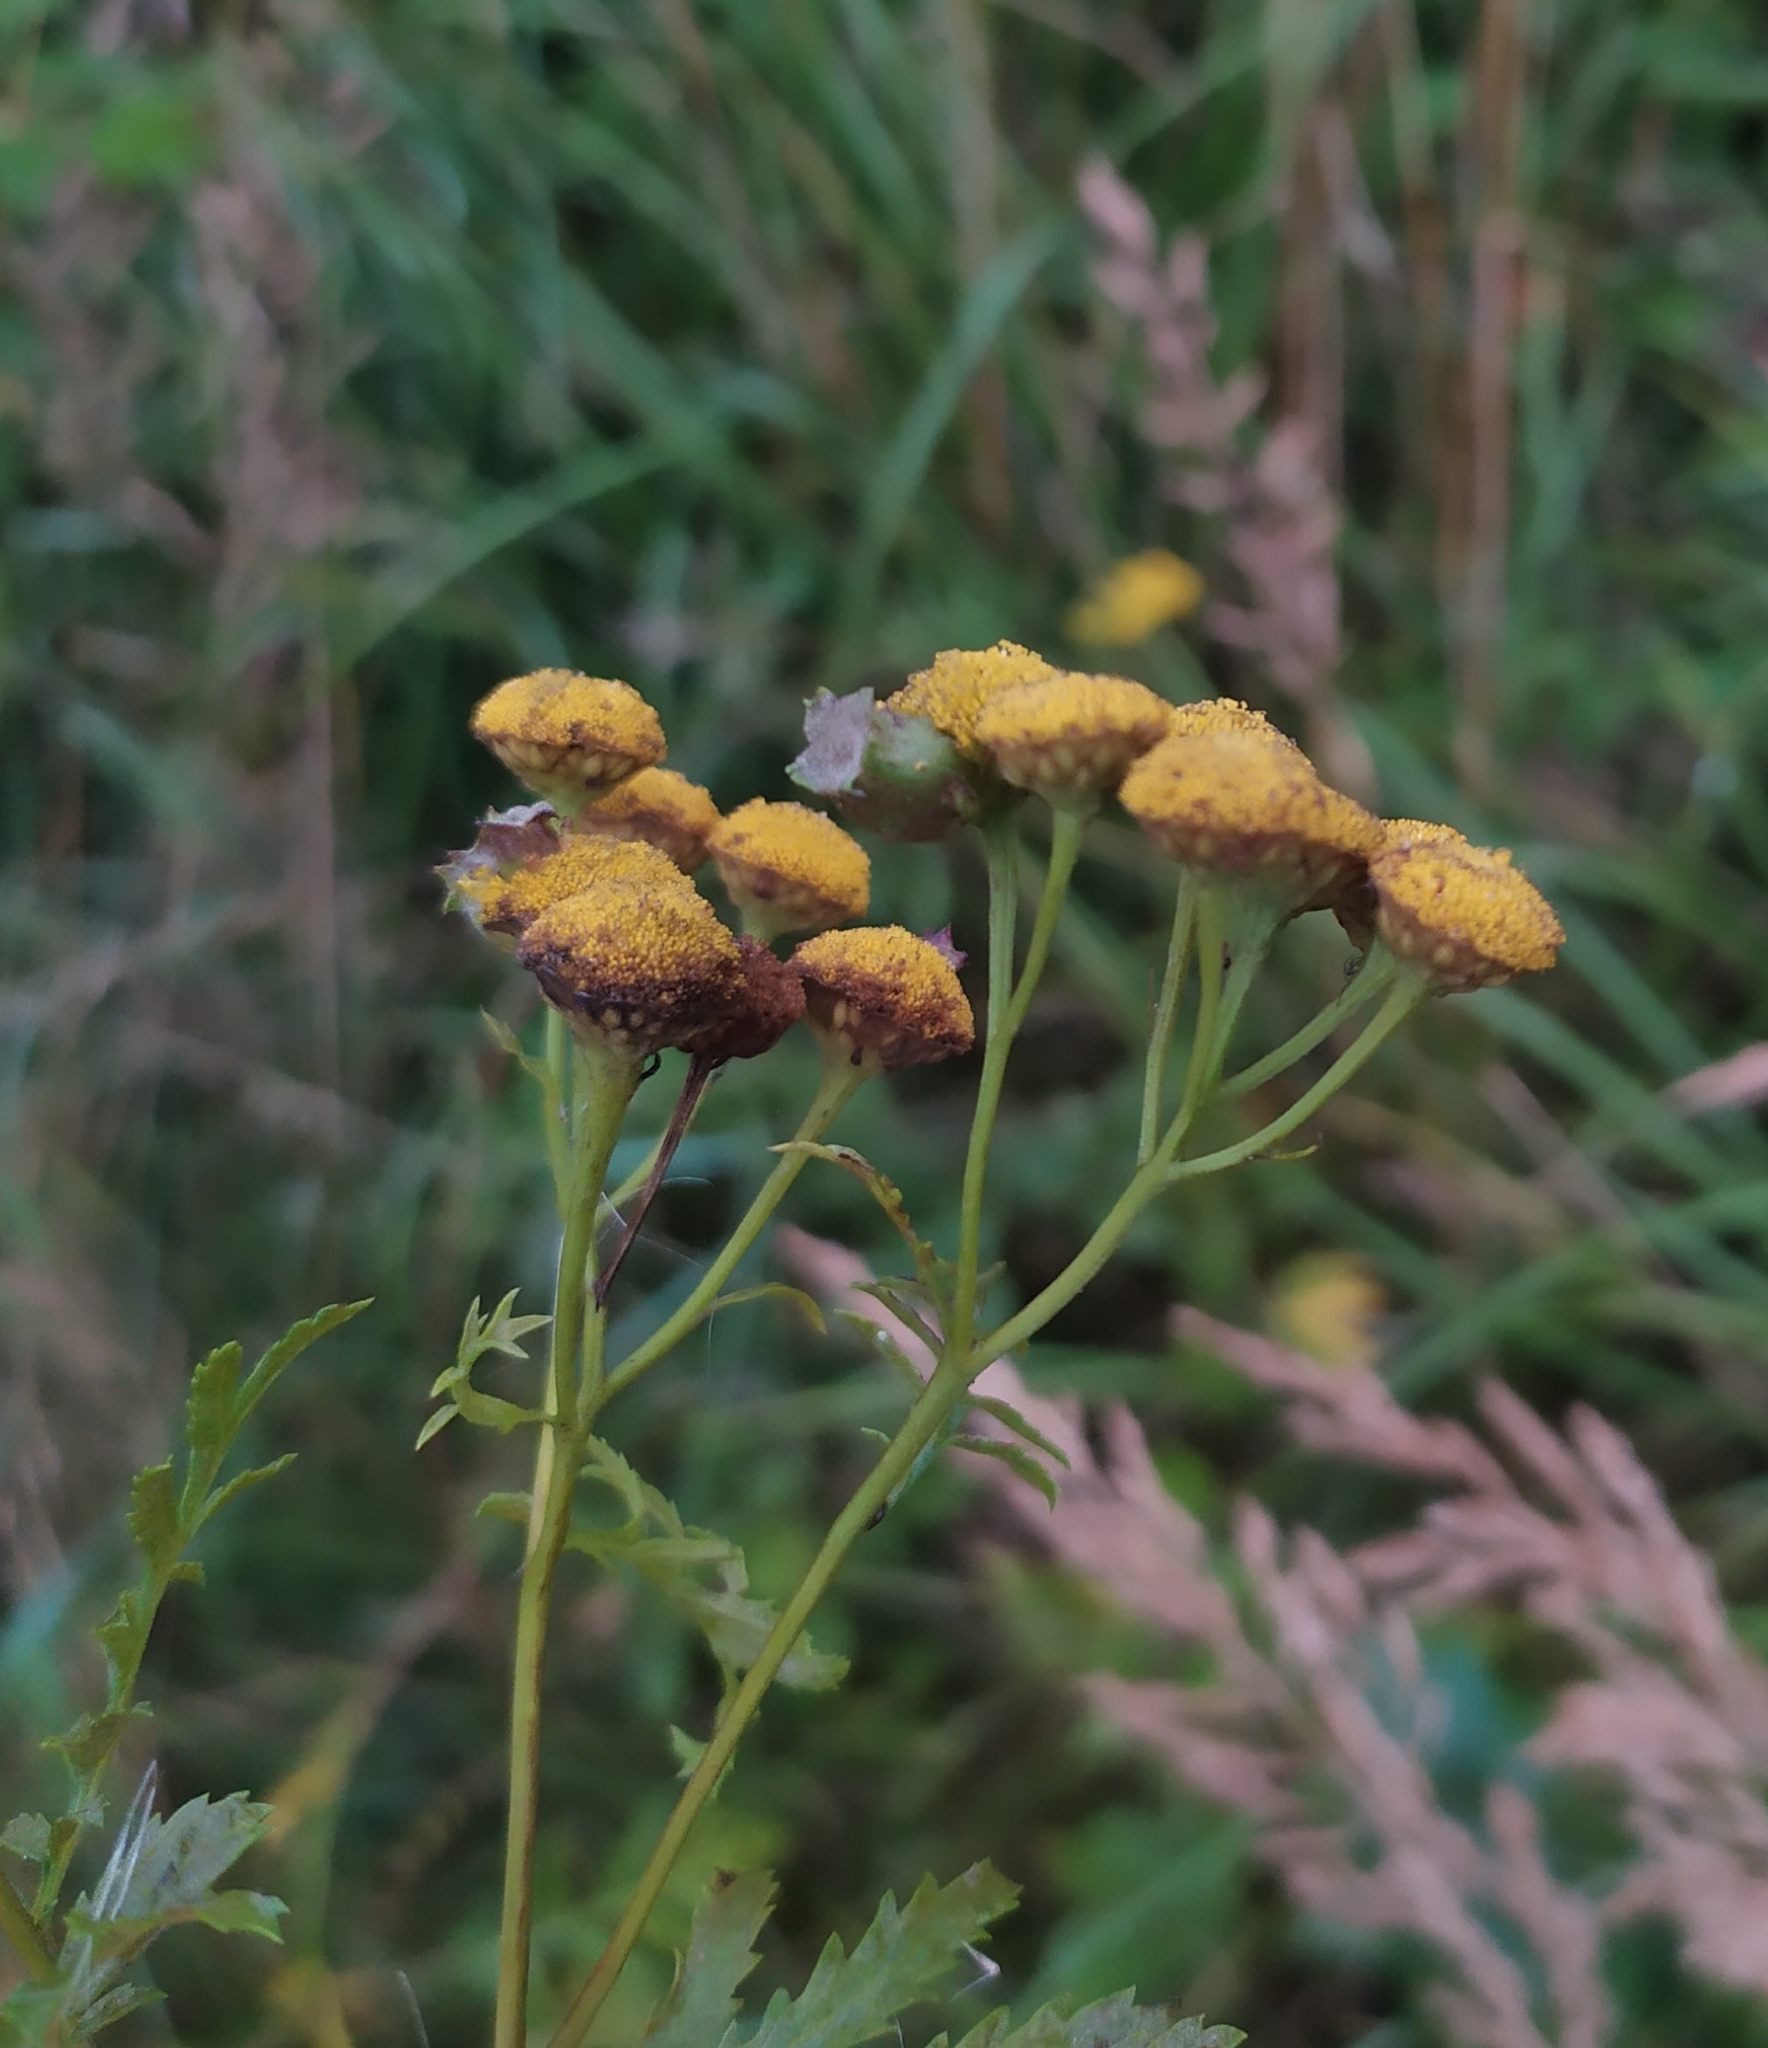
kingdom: Animalia
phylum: Arthropoda
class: Insecta
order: Diptera
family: Cecidomyiidae
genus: Rhopalomyia
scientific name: Rhopalomyia tanaceticolus
